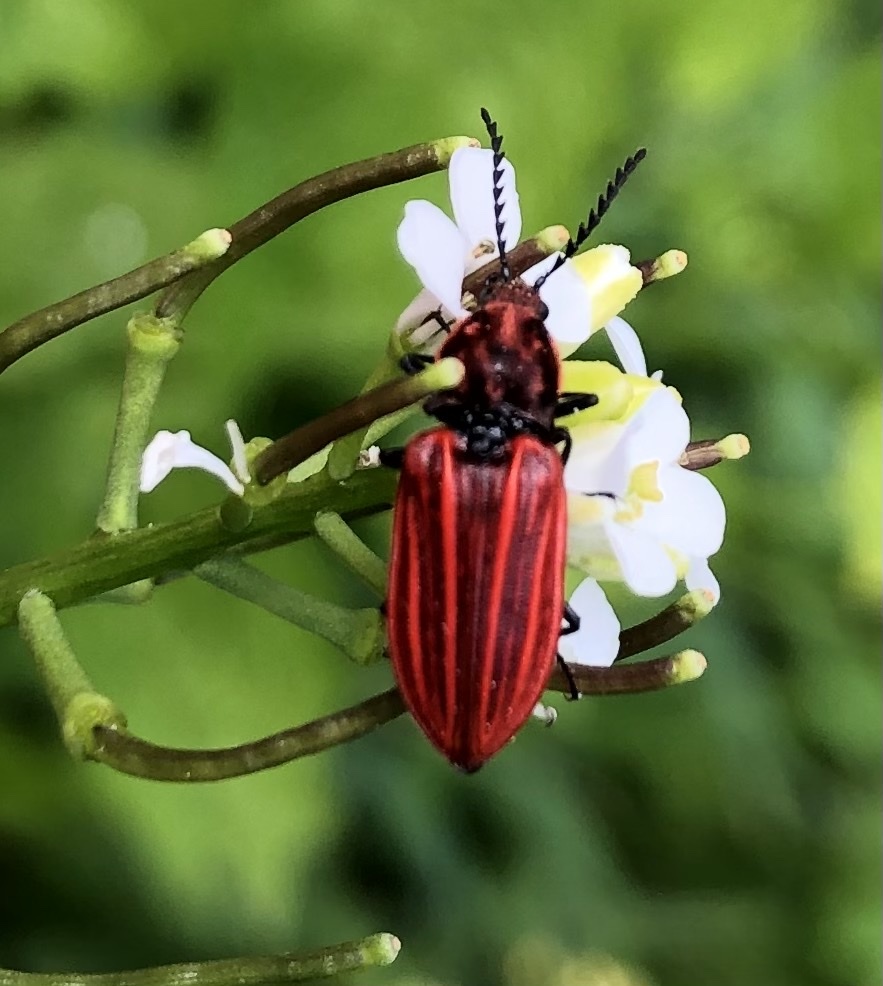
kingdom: Animalia
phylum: Arthropoda
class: Insecta
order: Coleoptera
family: Elateridae
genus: Anostirus
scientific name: Anostirus purpureus
